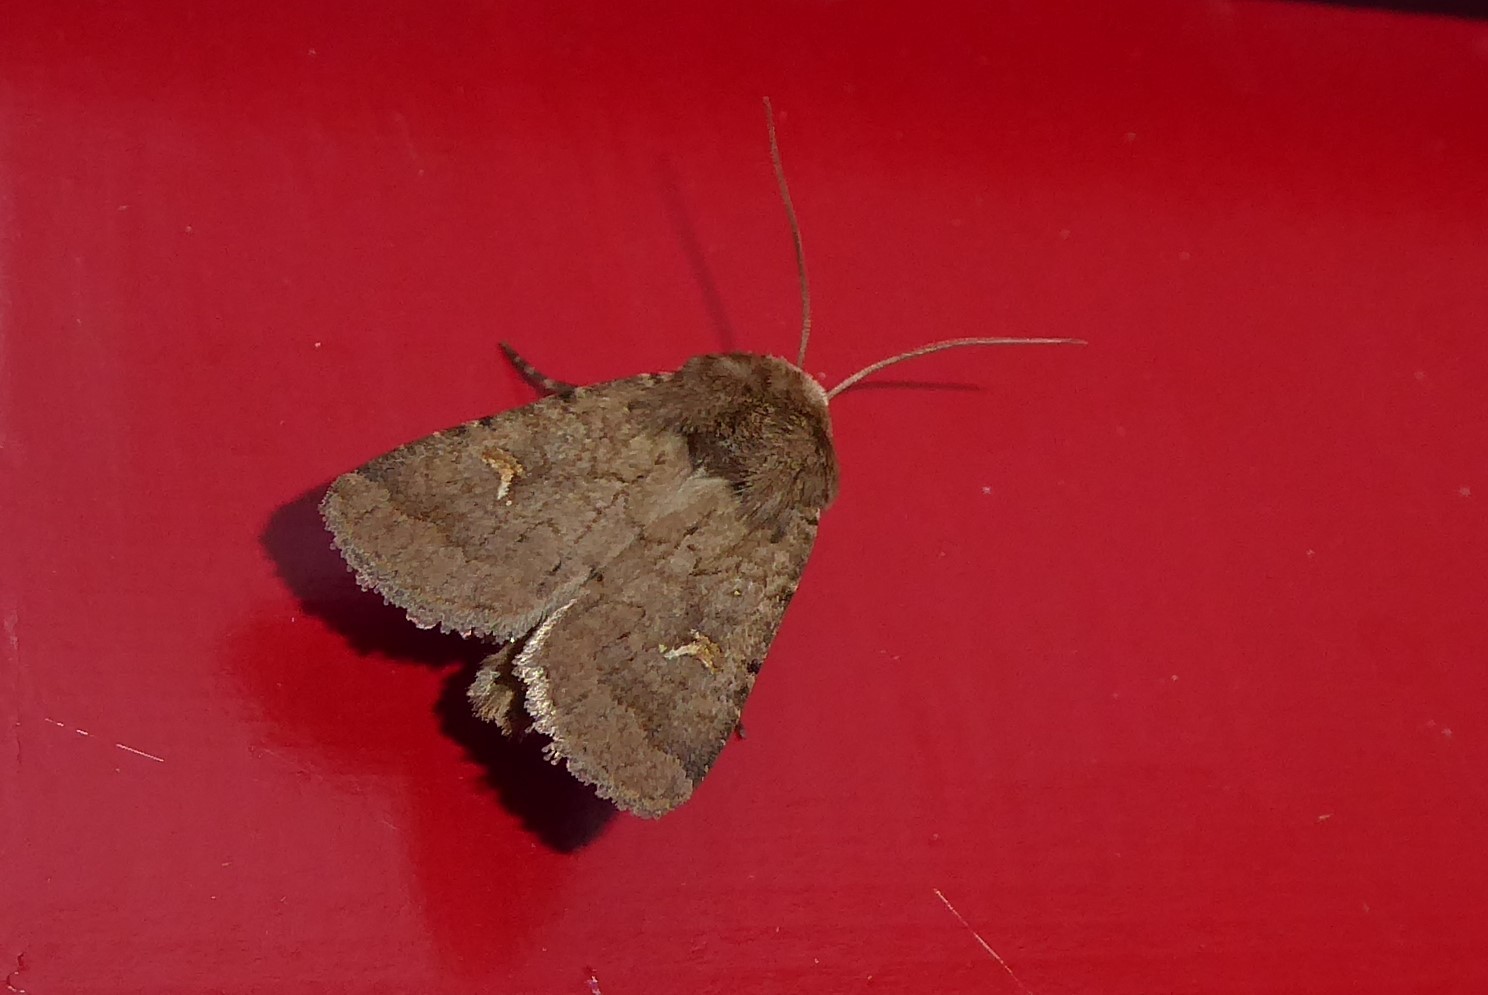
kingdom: Animalia
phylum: Arthropoda
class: Insecta
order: Lepidoptera
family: Noctuidae
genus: Proteuxoa
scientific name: Proteuxoa tetronycha
